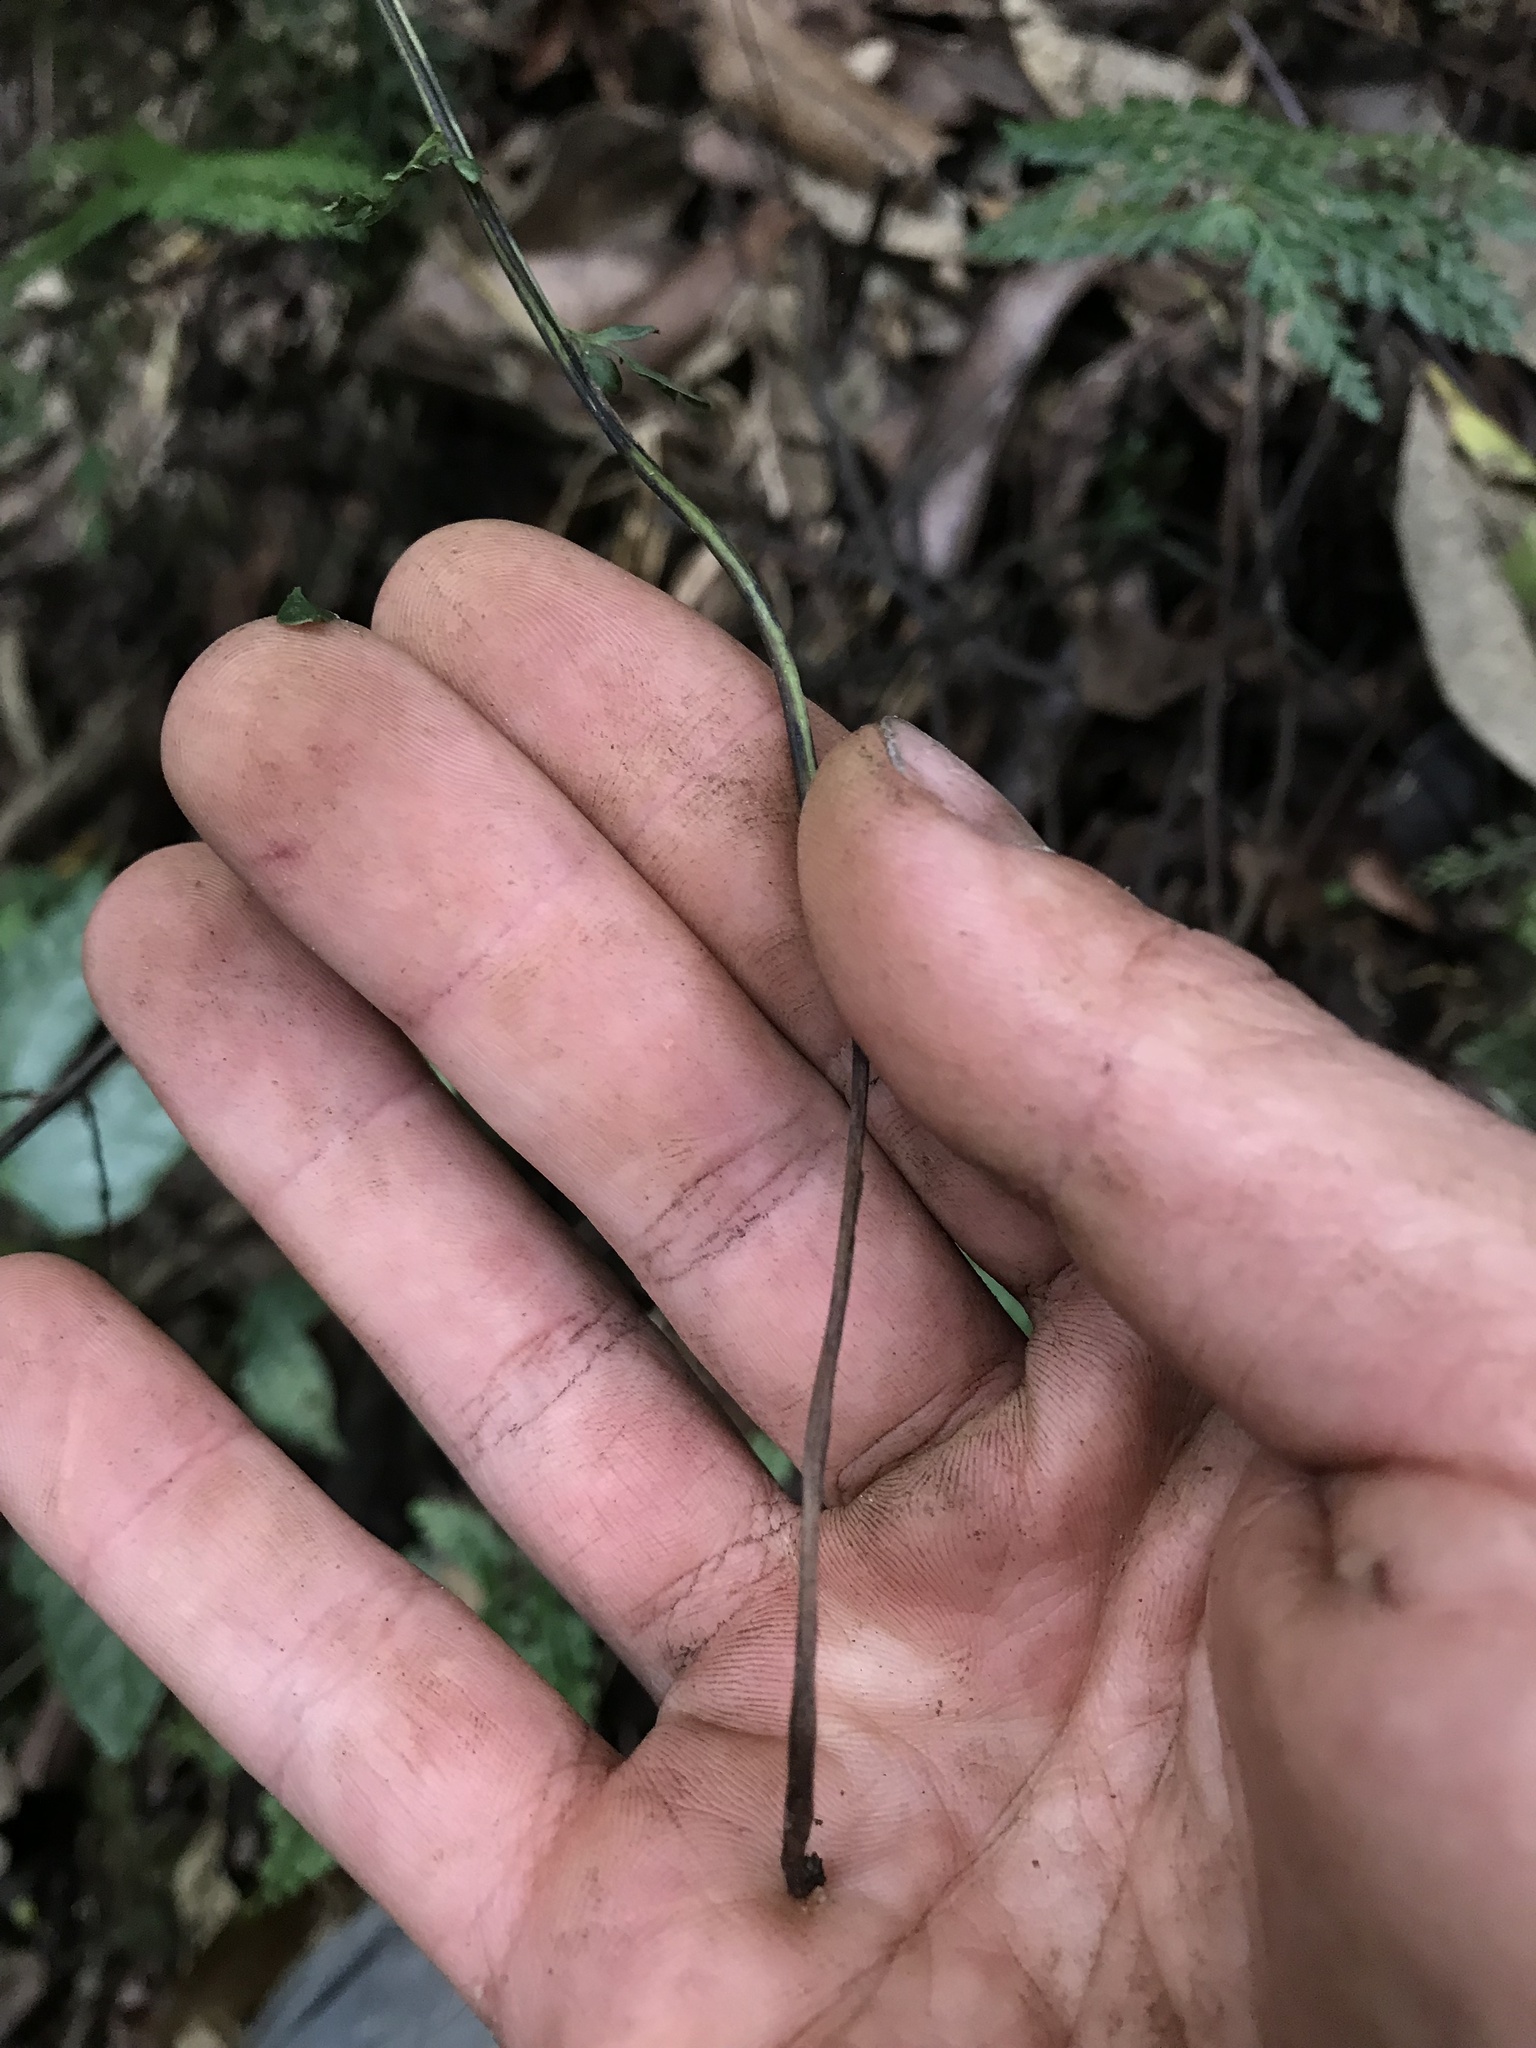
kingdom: Plantae
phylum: Tracheophyta
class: Polypodiopsida
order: Polypodiales
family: Aspleniaceae
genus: Asplenium
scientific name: Asplenium flabellulatum
